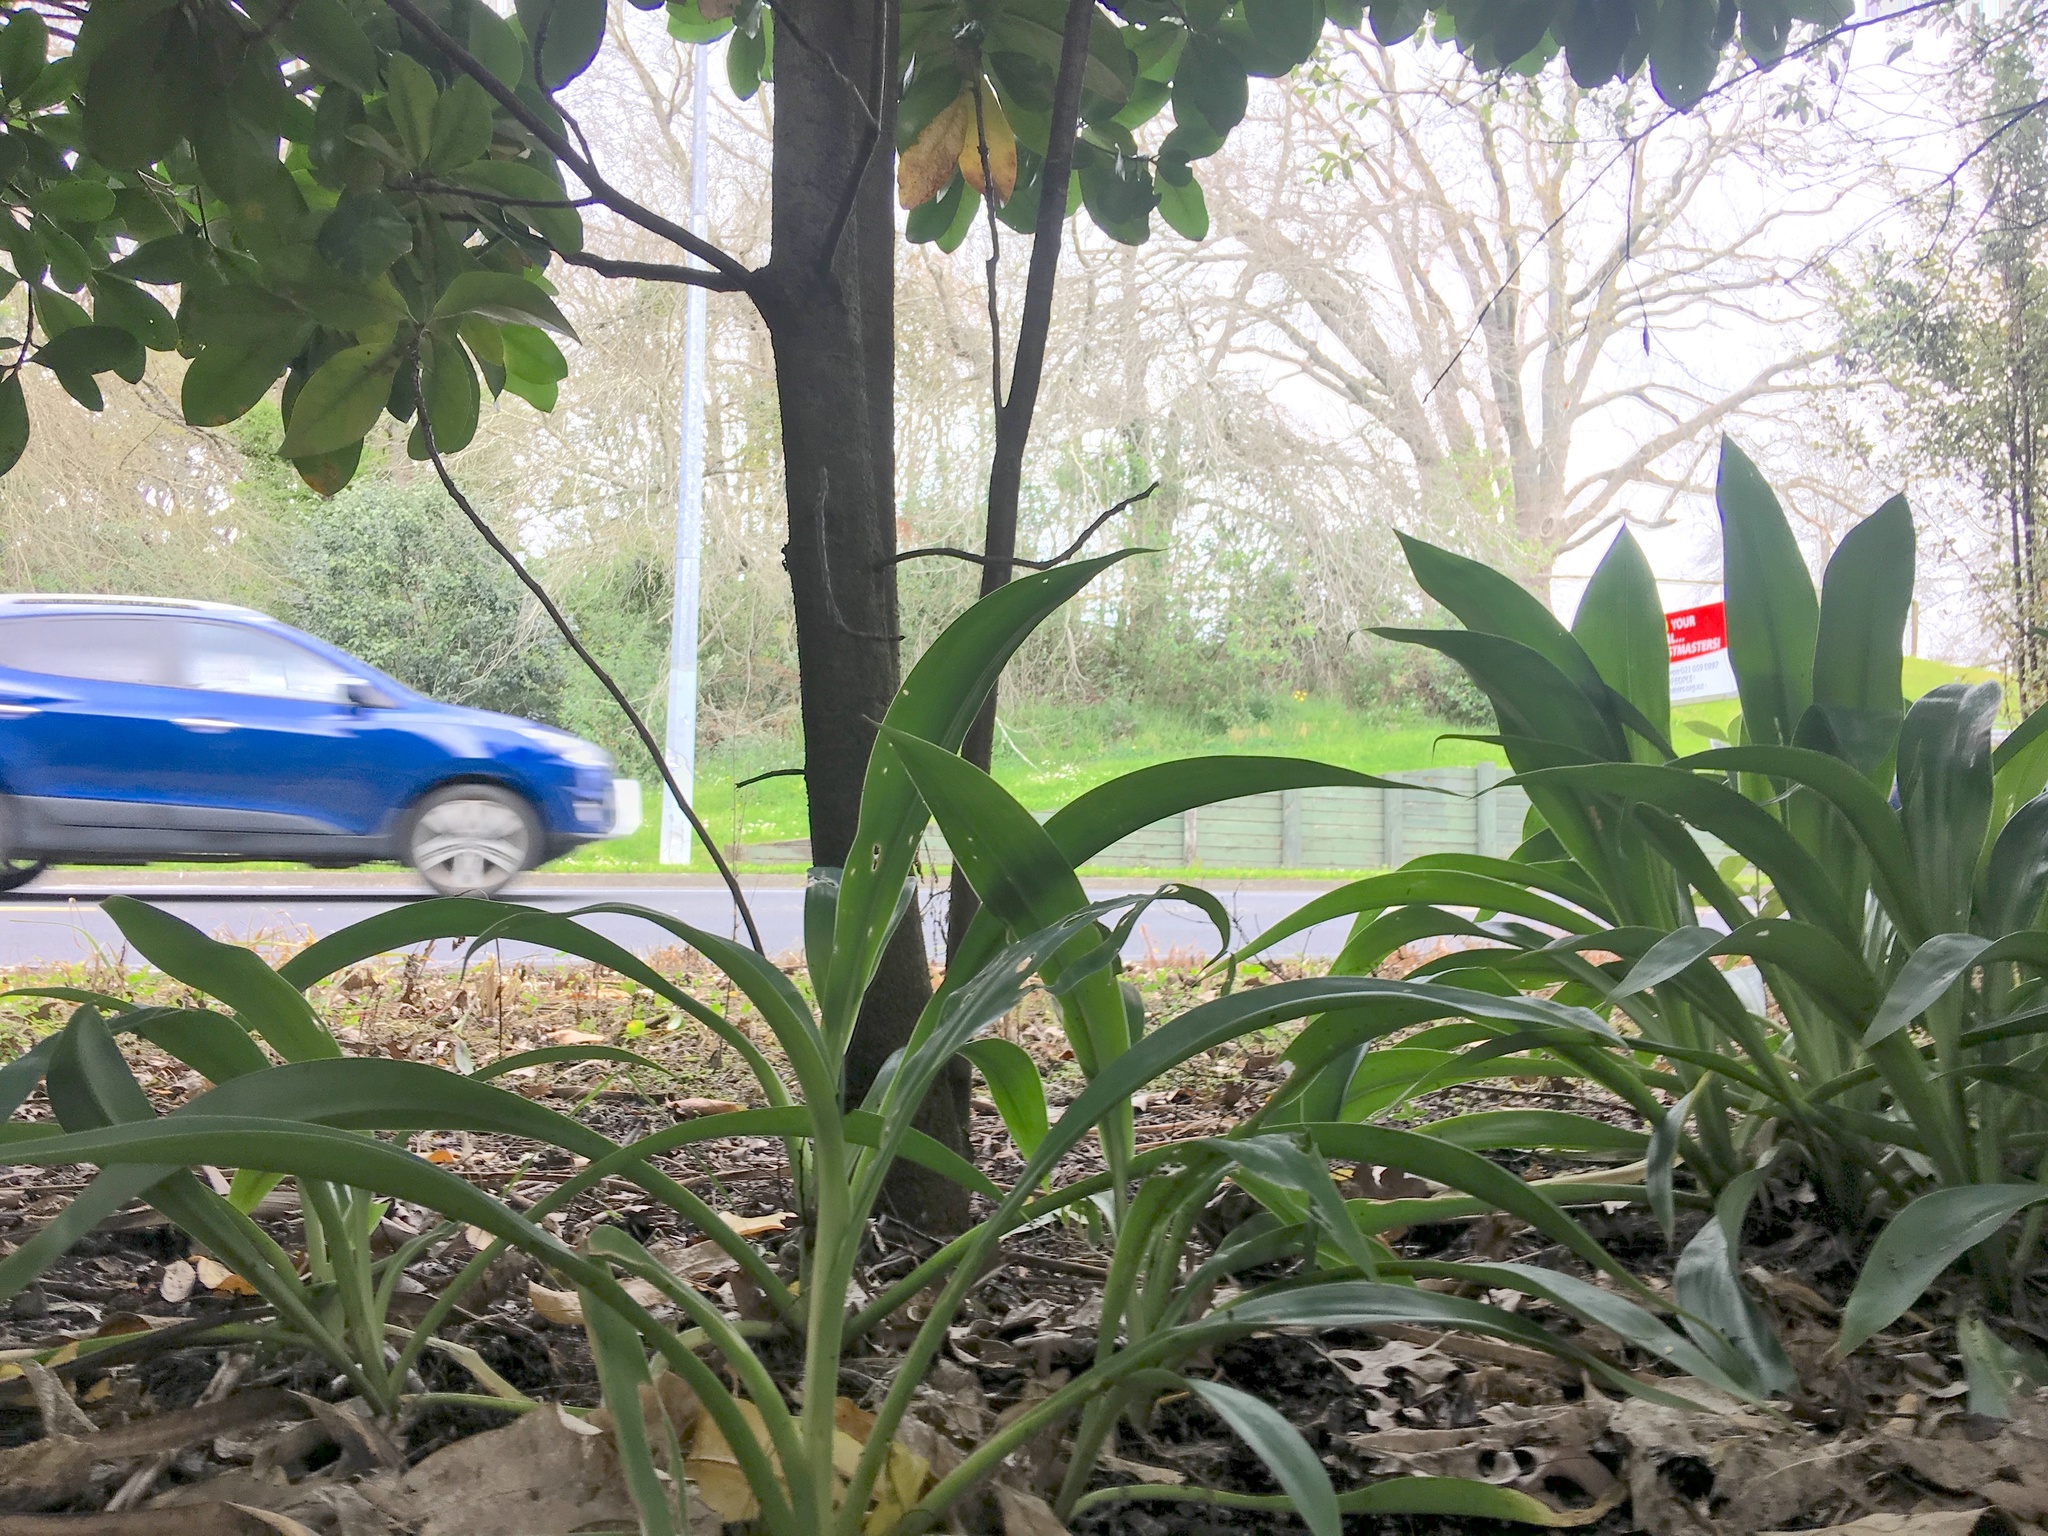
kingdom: Plantae
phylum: Tracheophyta
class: Liliopsida
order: Asparagales
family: Asparagaceae
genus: Arthropodium
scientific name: Arthropodium cirratum
